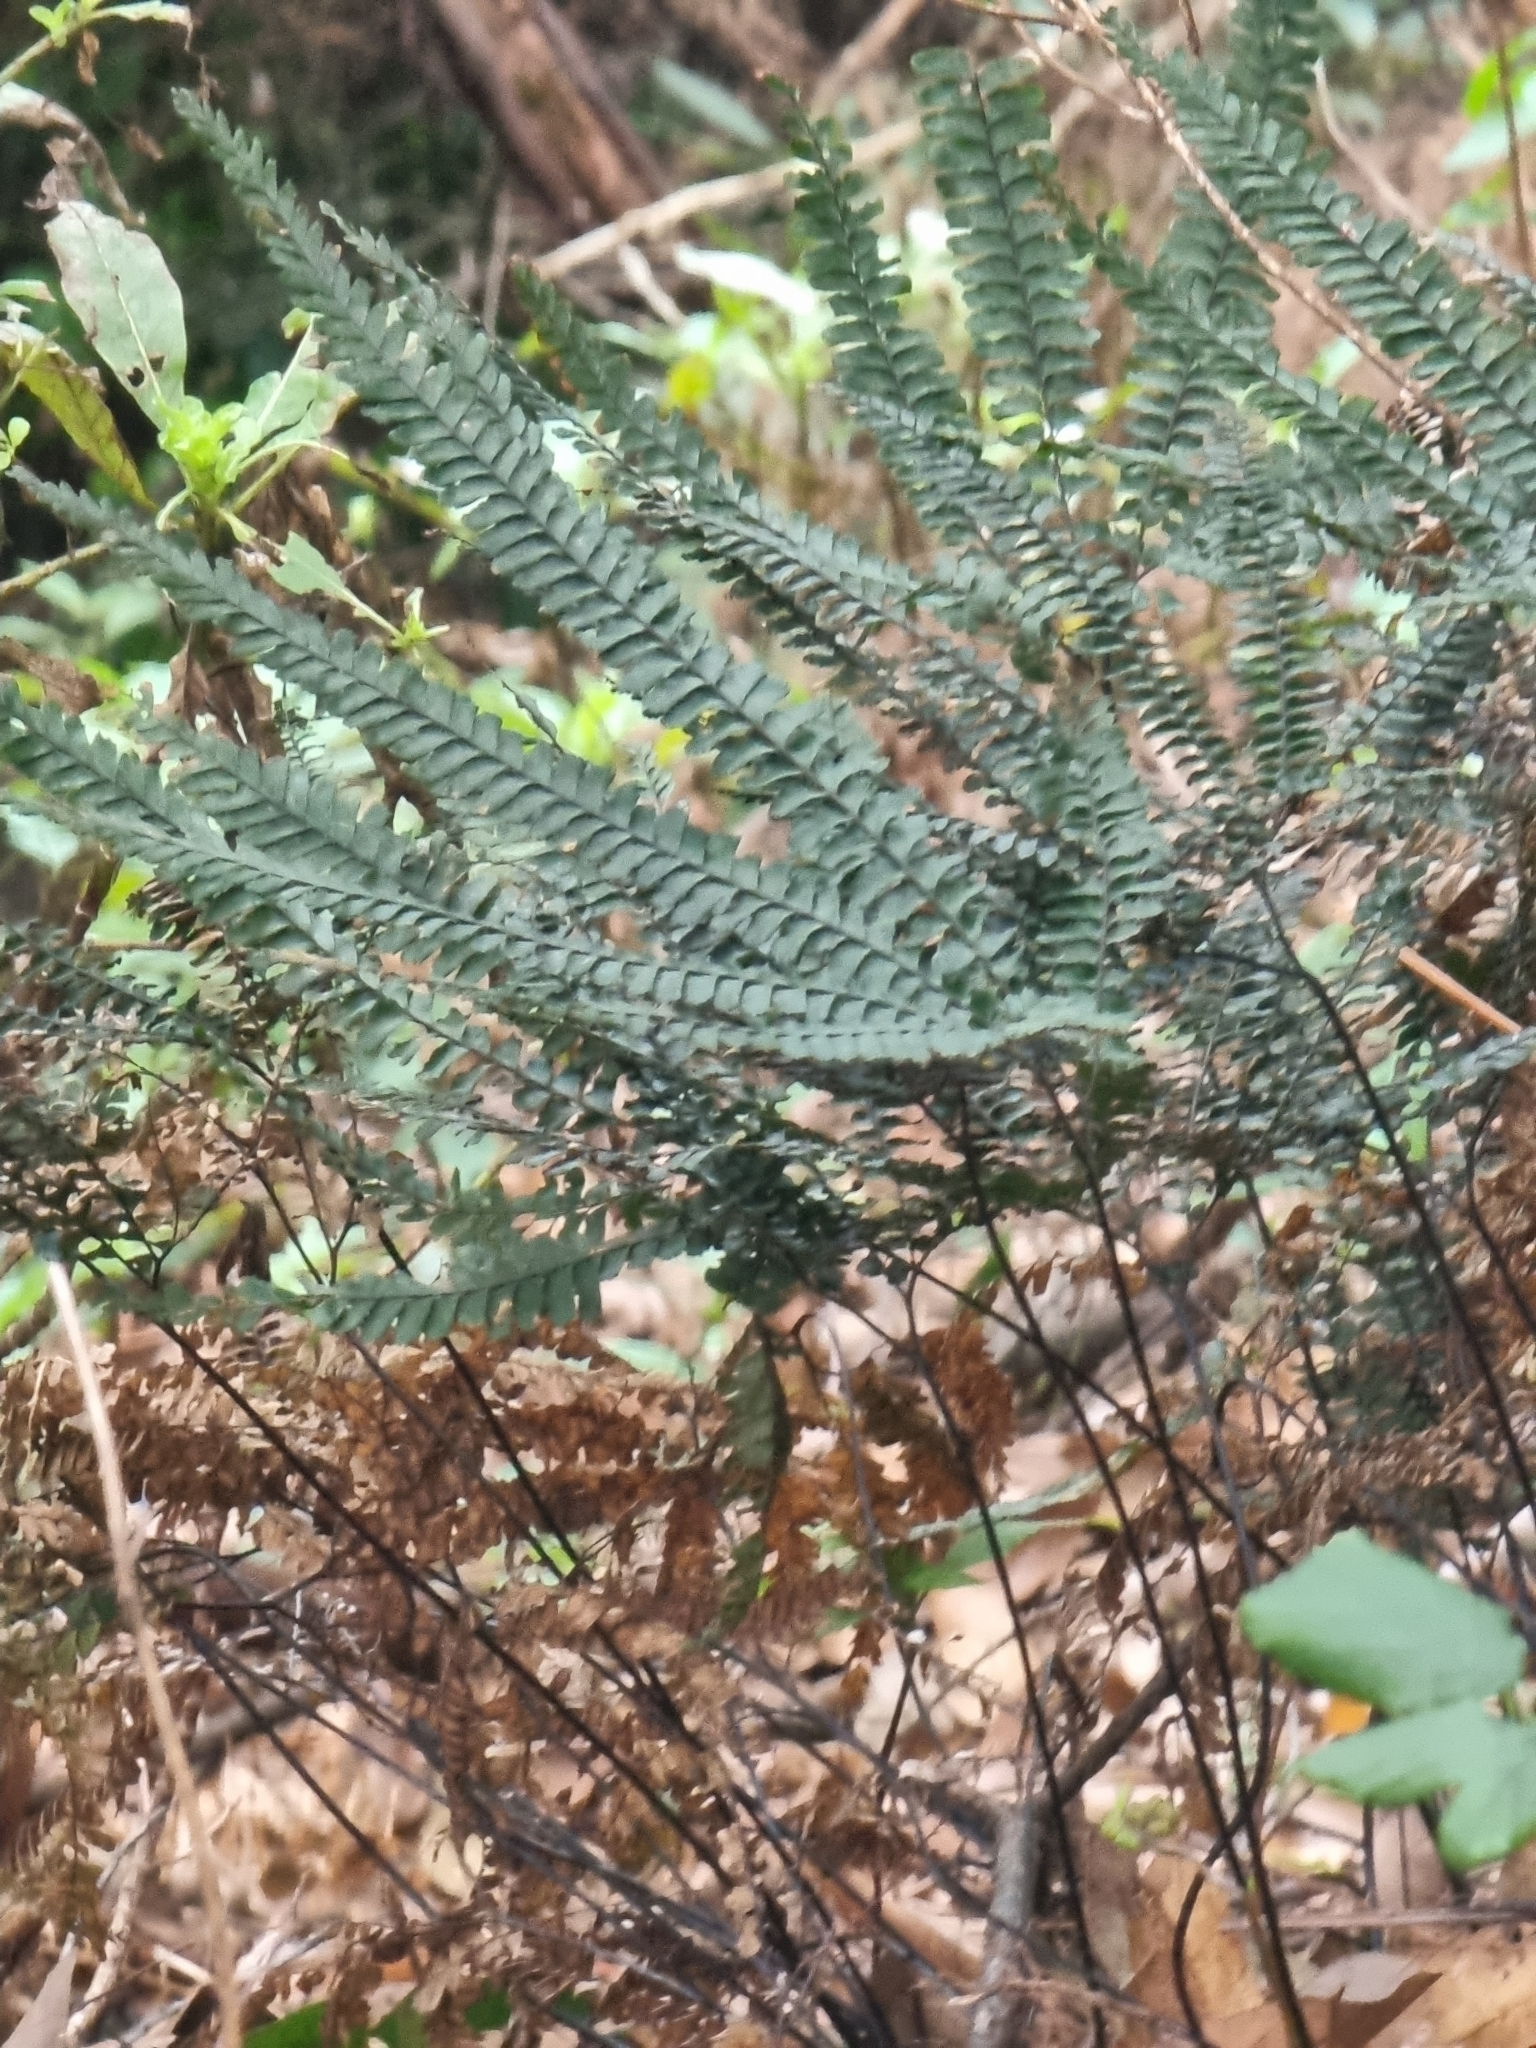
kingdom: Plantae
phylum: Tracheophyta
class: Polypodiopsida
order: Polypodiales
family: Pteridaceae
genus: Adiantum
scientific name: Adiantum hispidulum
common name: Rough maidenhair
